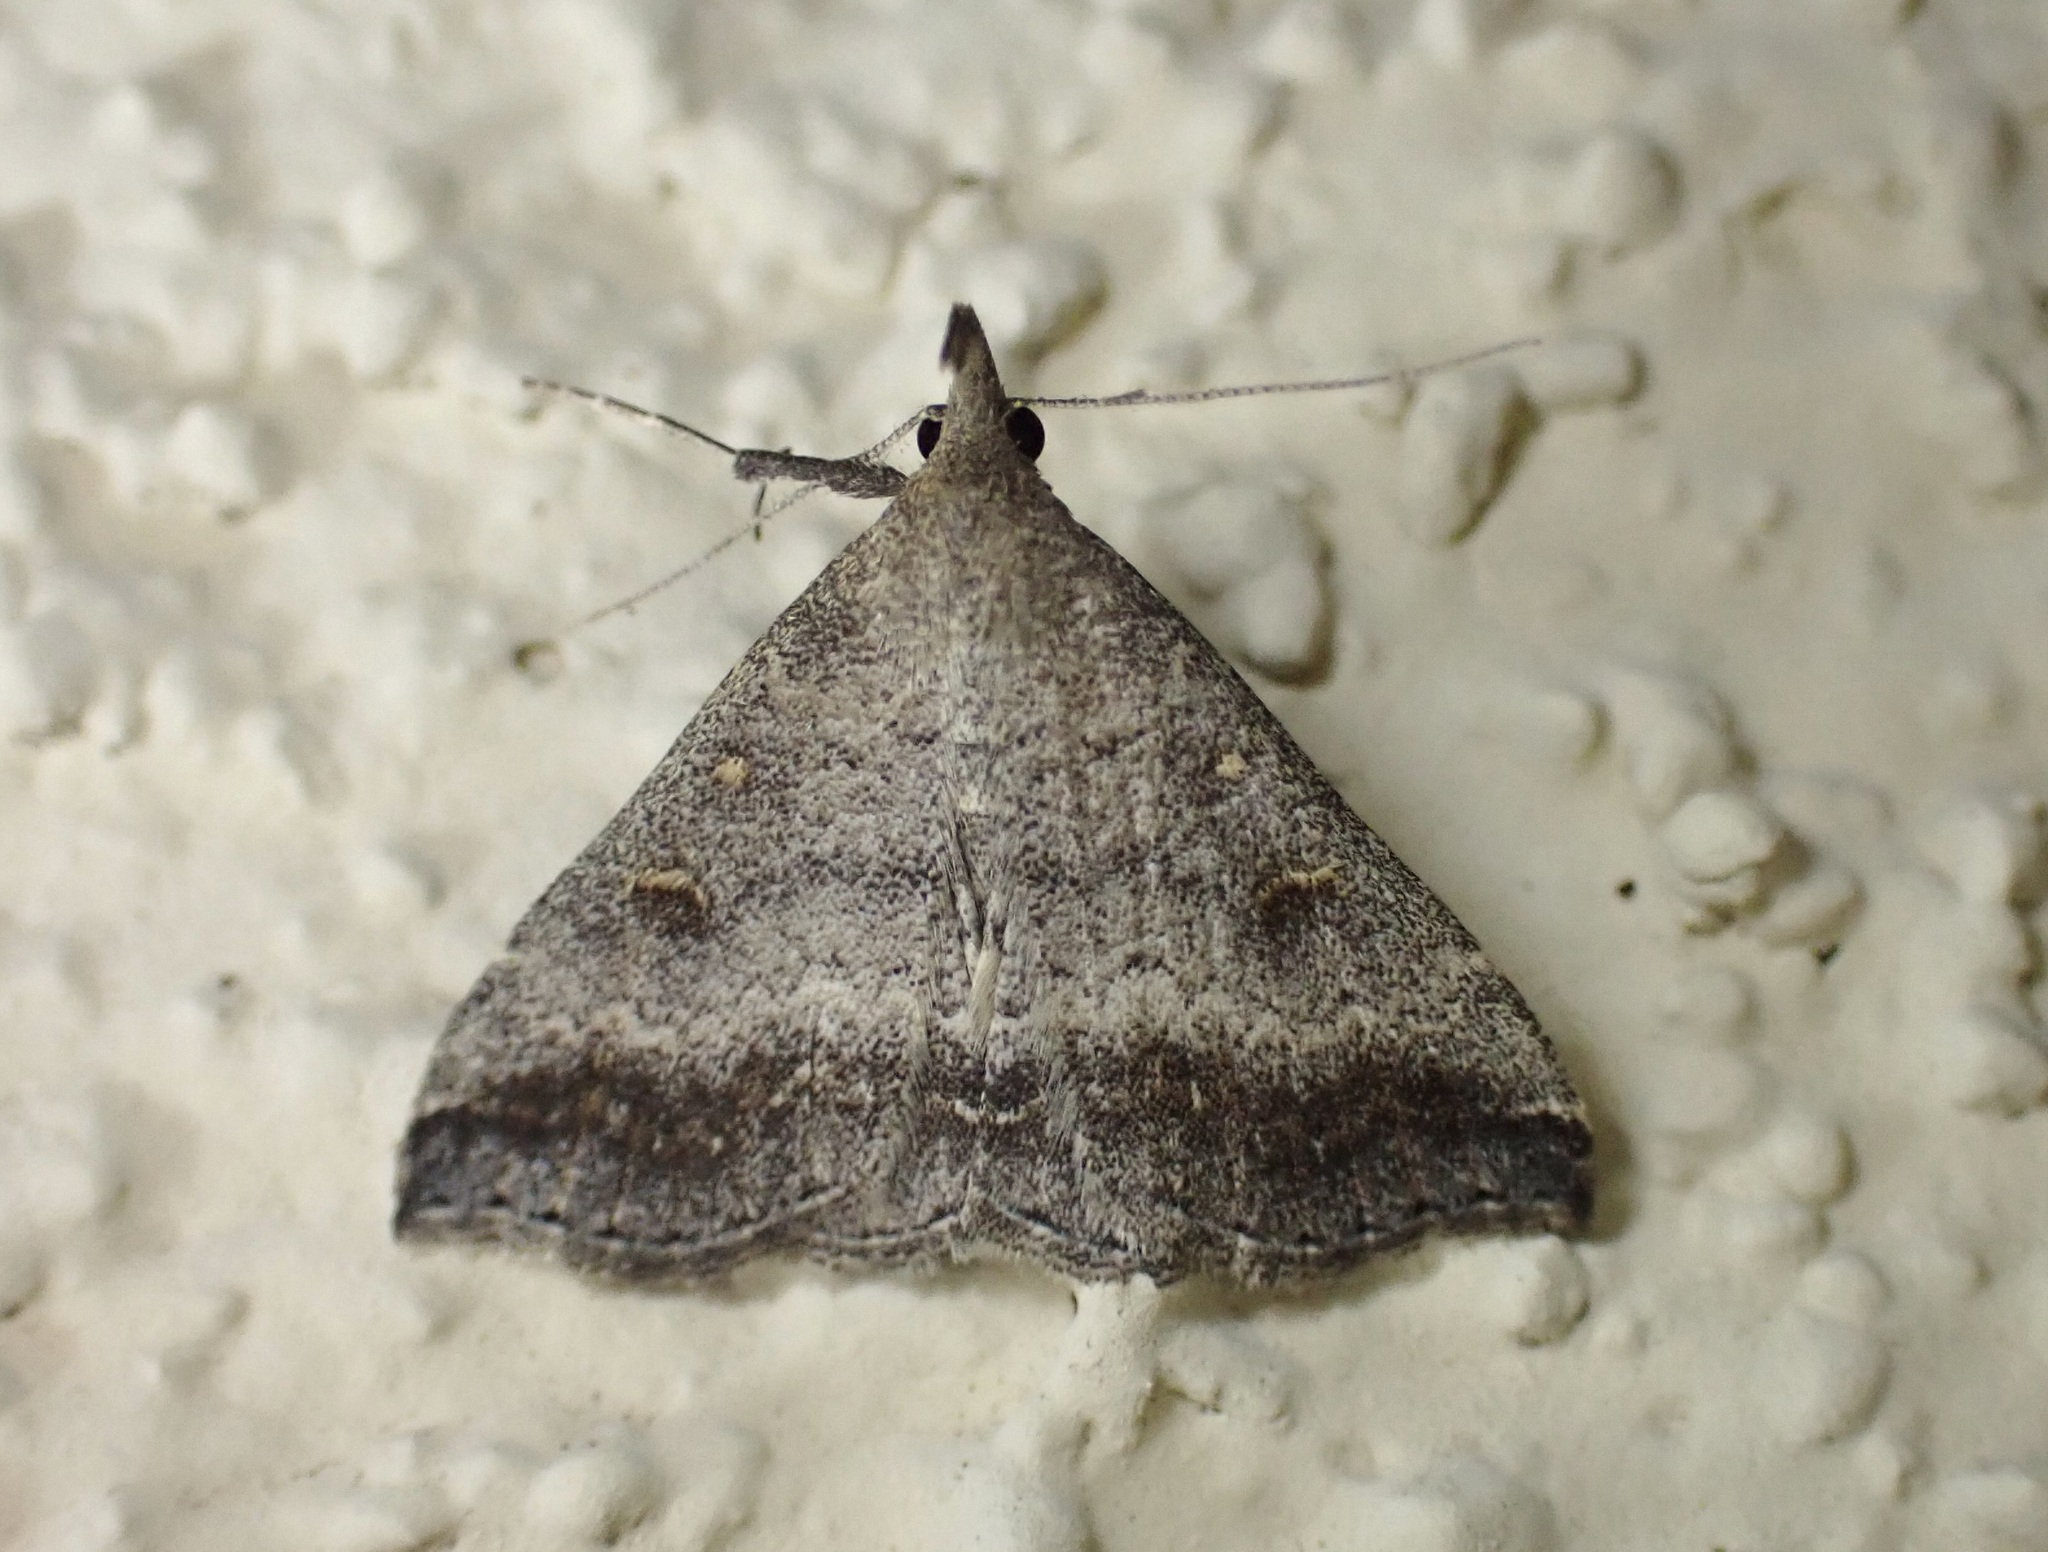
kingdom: Animalia
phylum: Arthropoda
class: Insecta
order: Lepidoptera
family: Erebidae
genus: Tetanolita
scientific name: Tetanolita palligera
